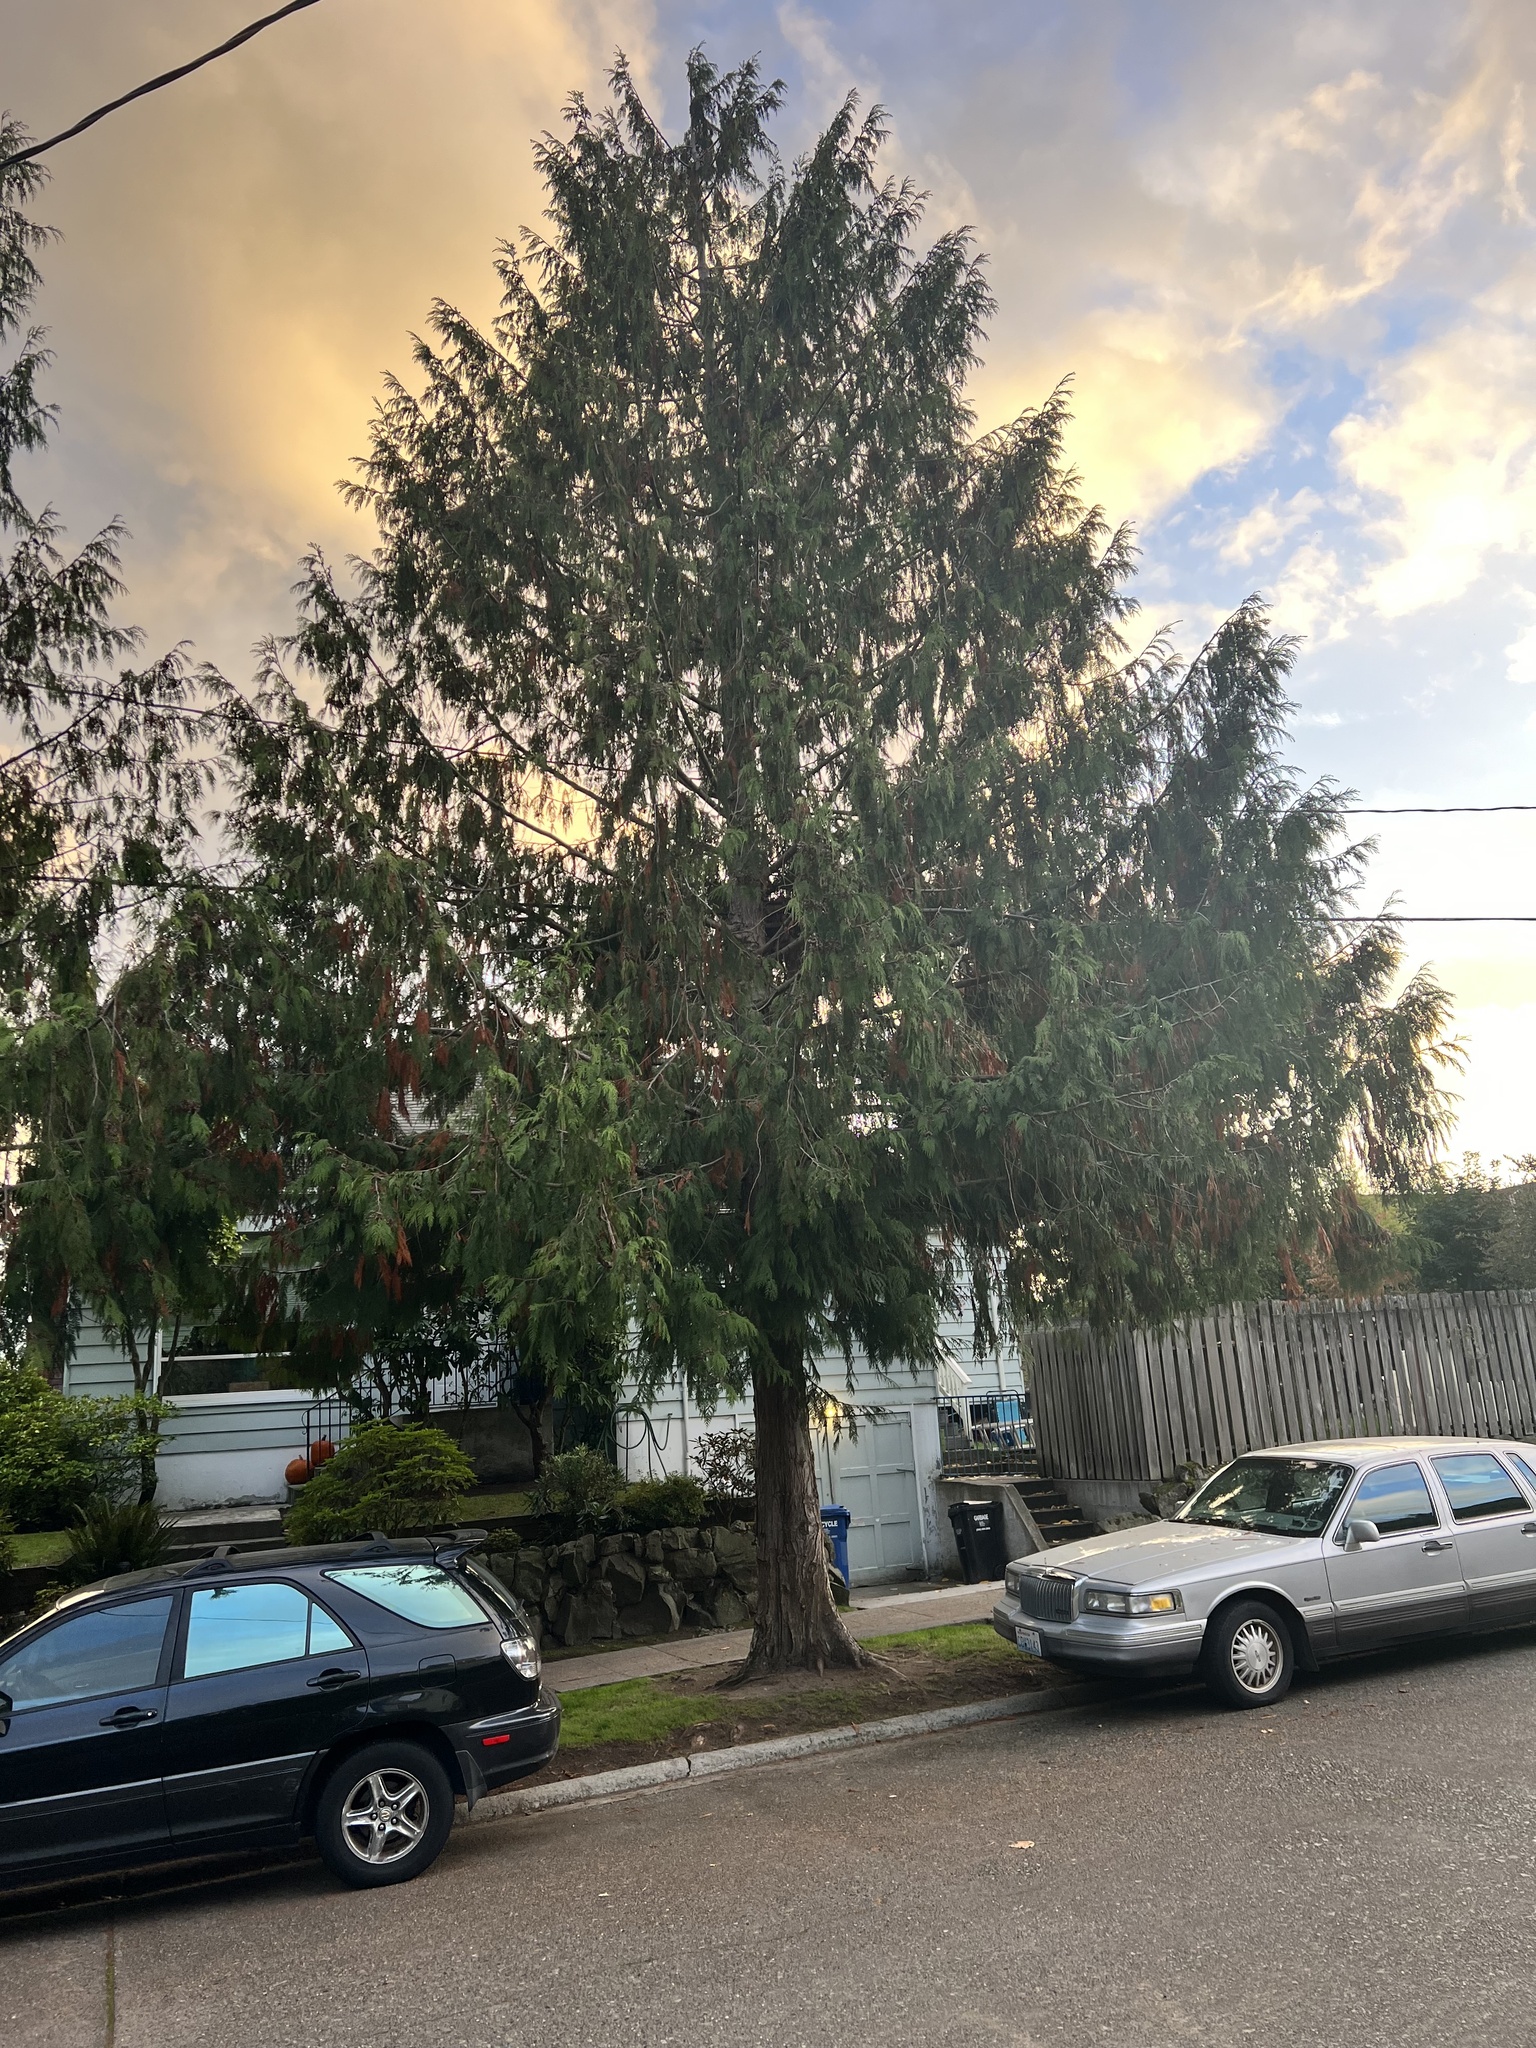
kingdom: Plantae
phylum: Tracheophyta
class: Pinopsida
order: Pinales
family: Cupressaceae
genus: Thuja
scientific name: Thuja plicata
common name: Western red-cedar
